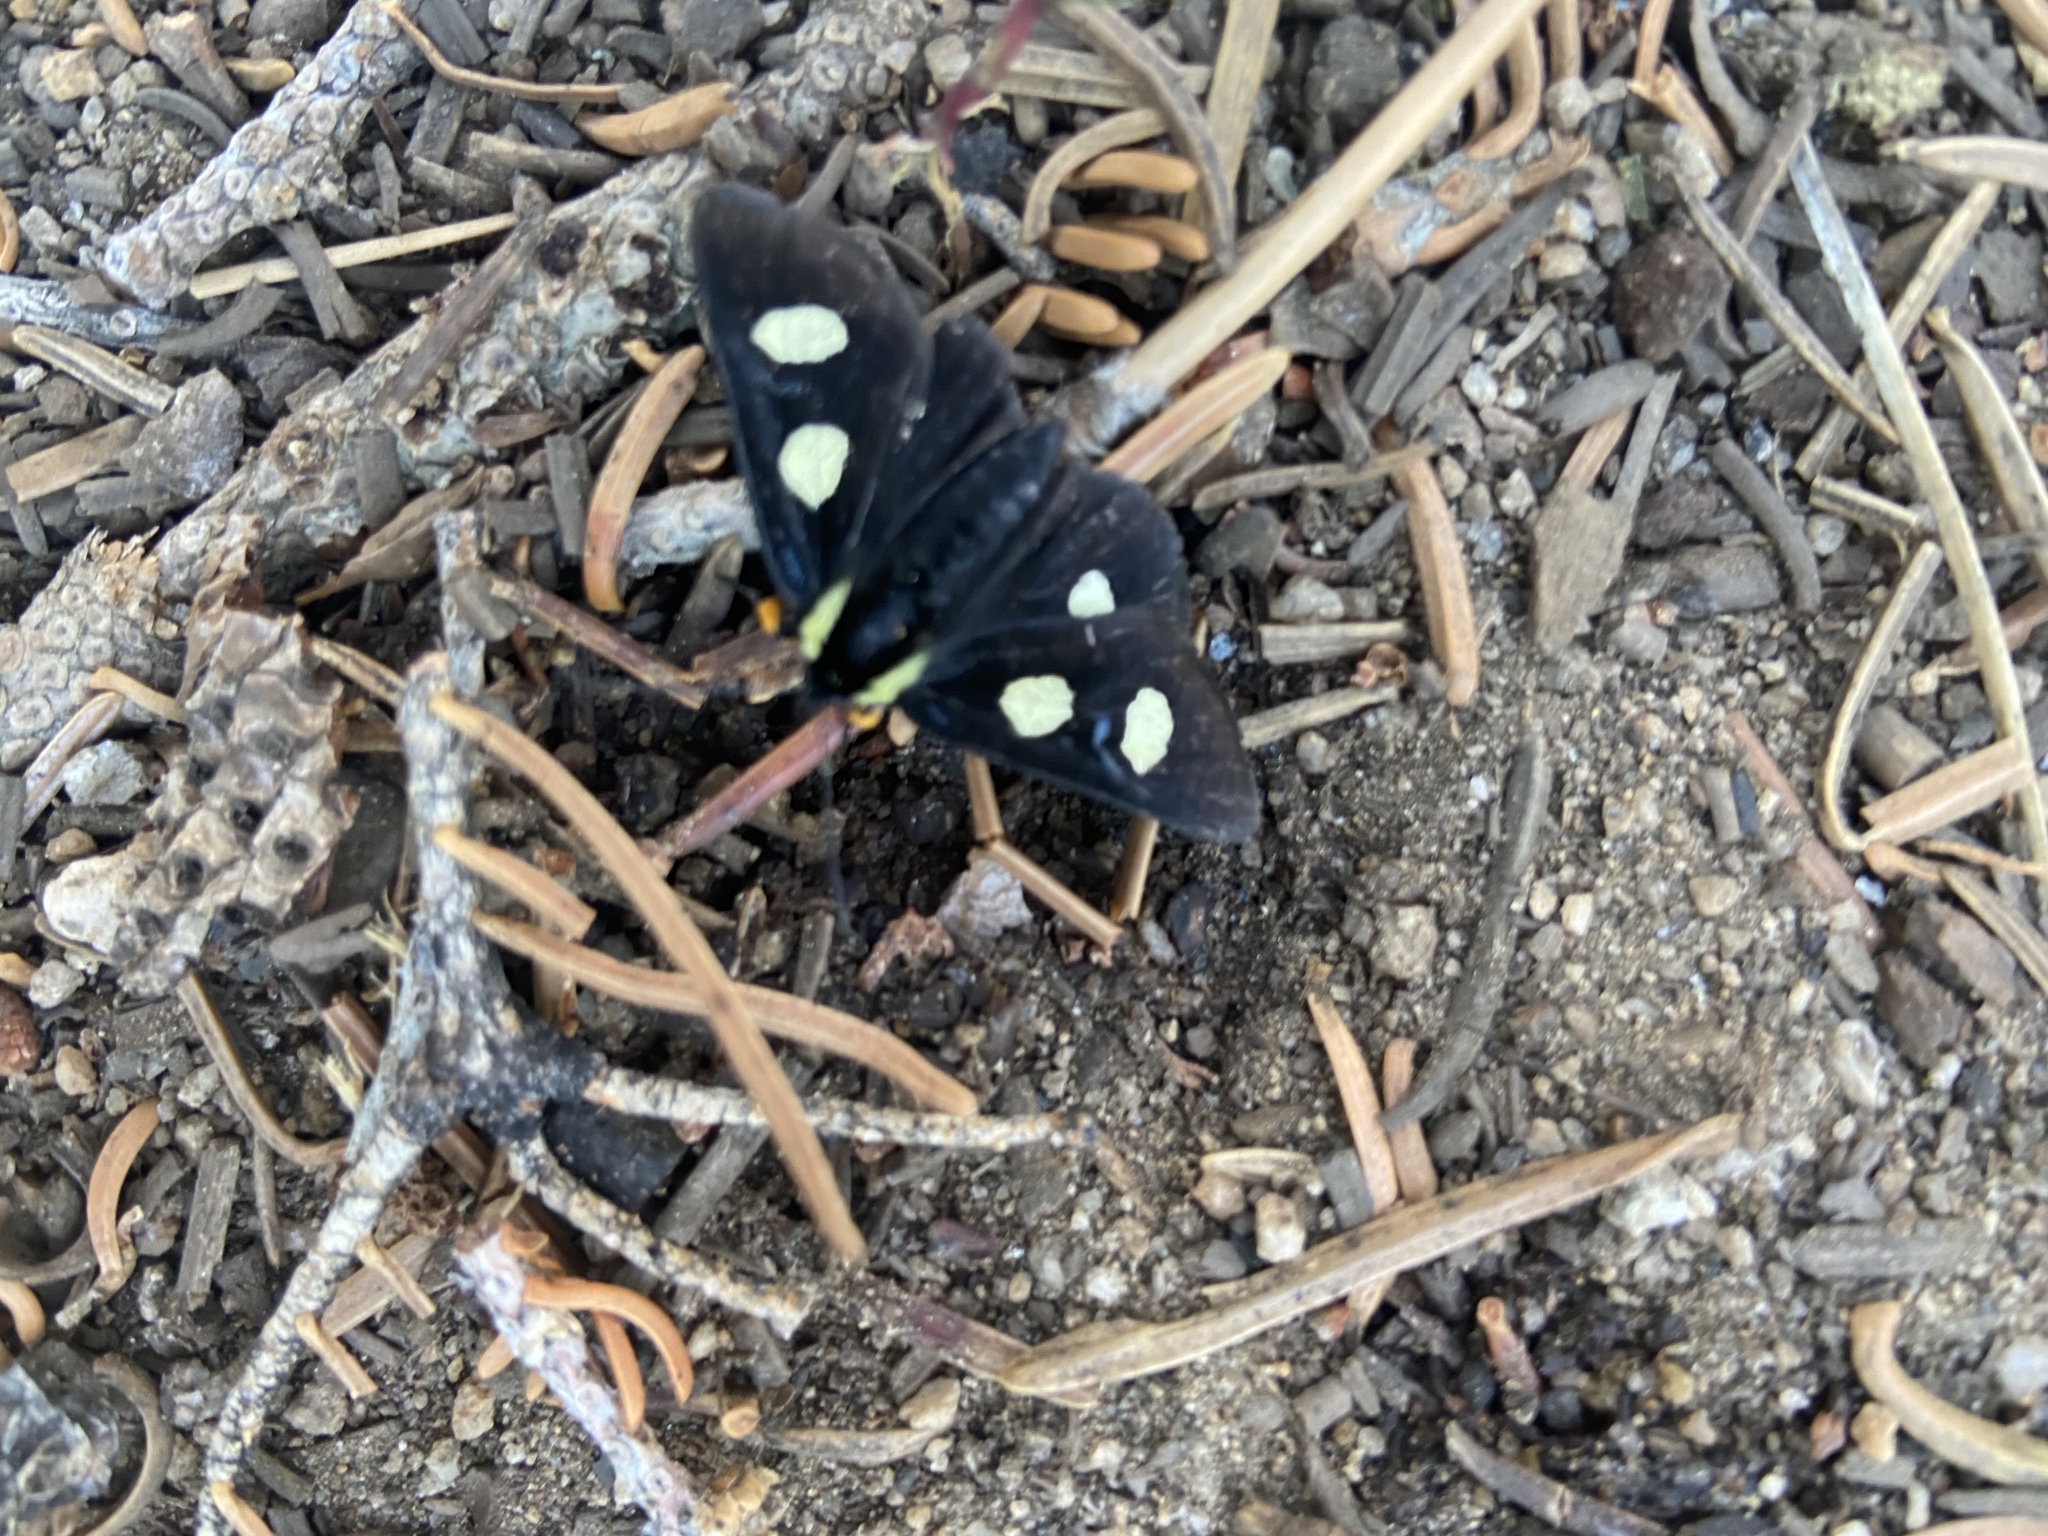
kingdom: Animalia
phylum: Arthropoda
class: Insecta
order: Lepidoptera
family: Noctuidae
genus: Alypia
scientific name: Alypia langtonii
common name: Fireweed caterpillar
